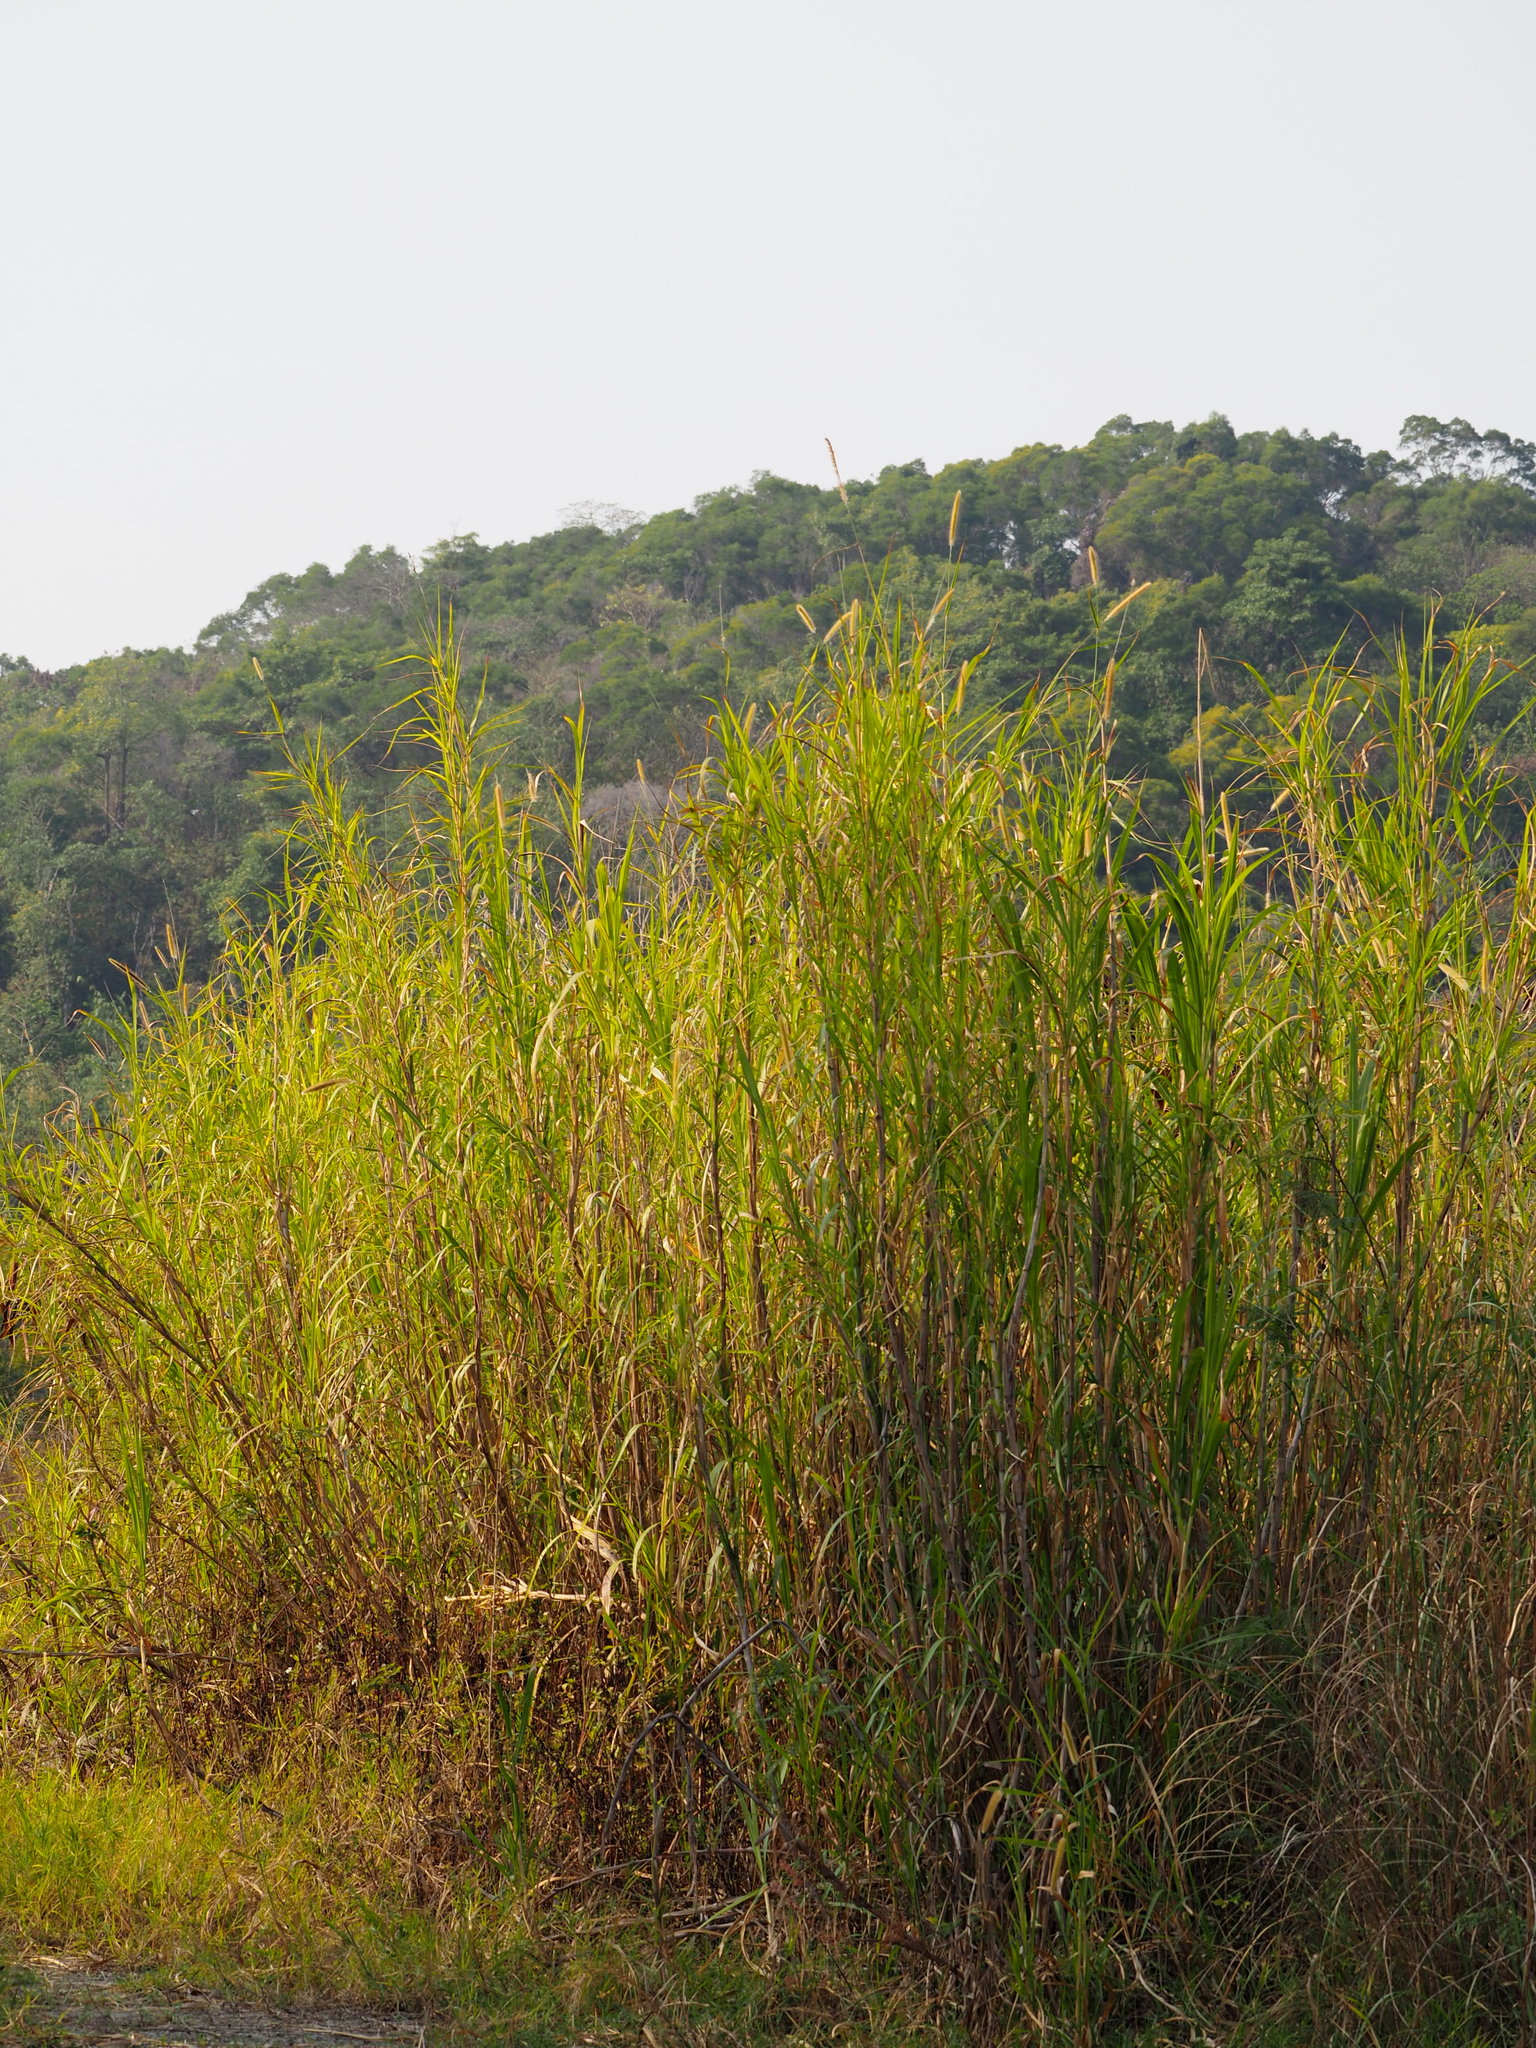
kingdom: Plantae
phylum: Tracheophyta
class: Liliopsida
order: Poales
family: Poaceae
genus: Cenchrus
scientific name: Cenchrus purpureus
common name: Elephant grass
